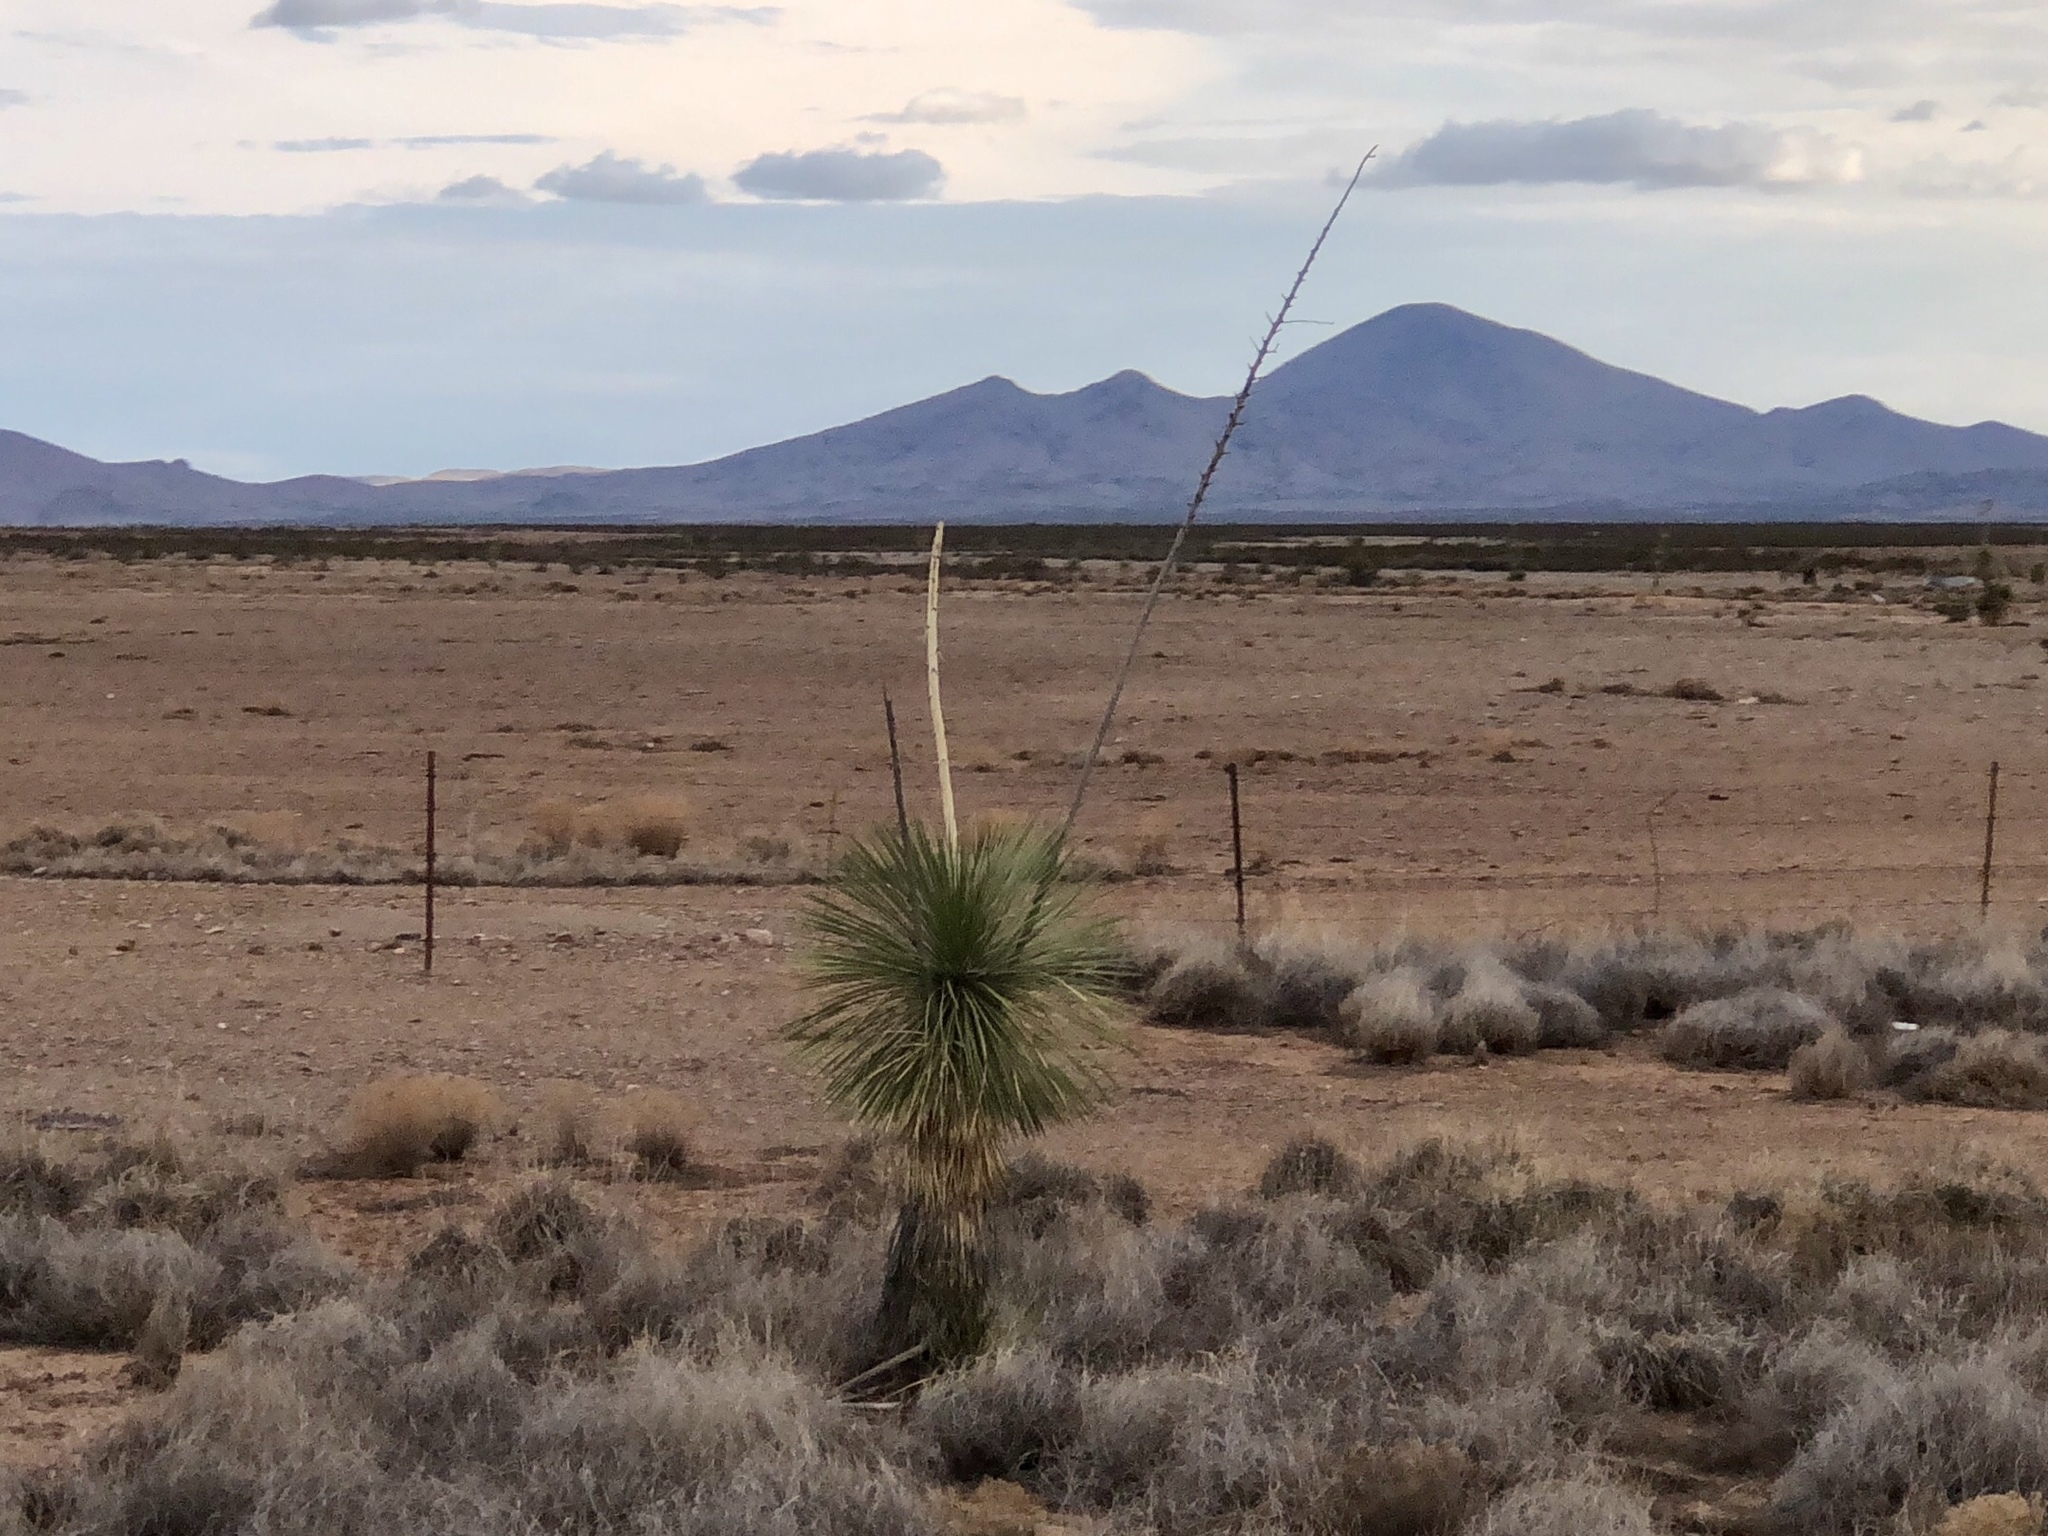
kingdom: Plantae
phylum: Tracheophyta
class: Liliopsida
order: Asparagales
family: Asparagaceae
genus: Yucca
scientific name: Yucca elata
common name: Palmella
